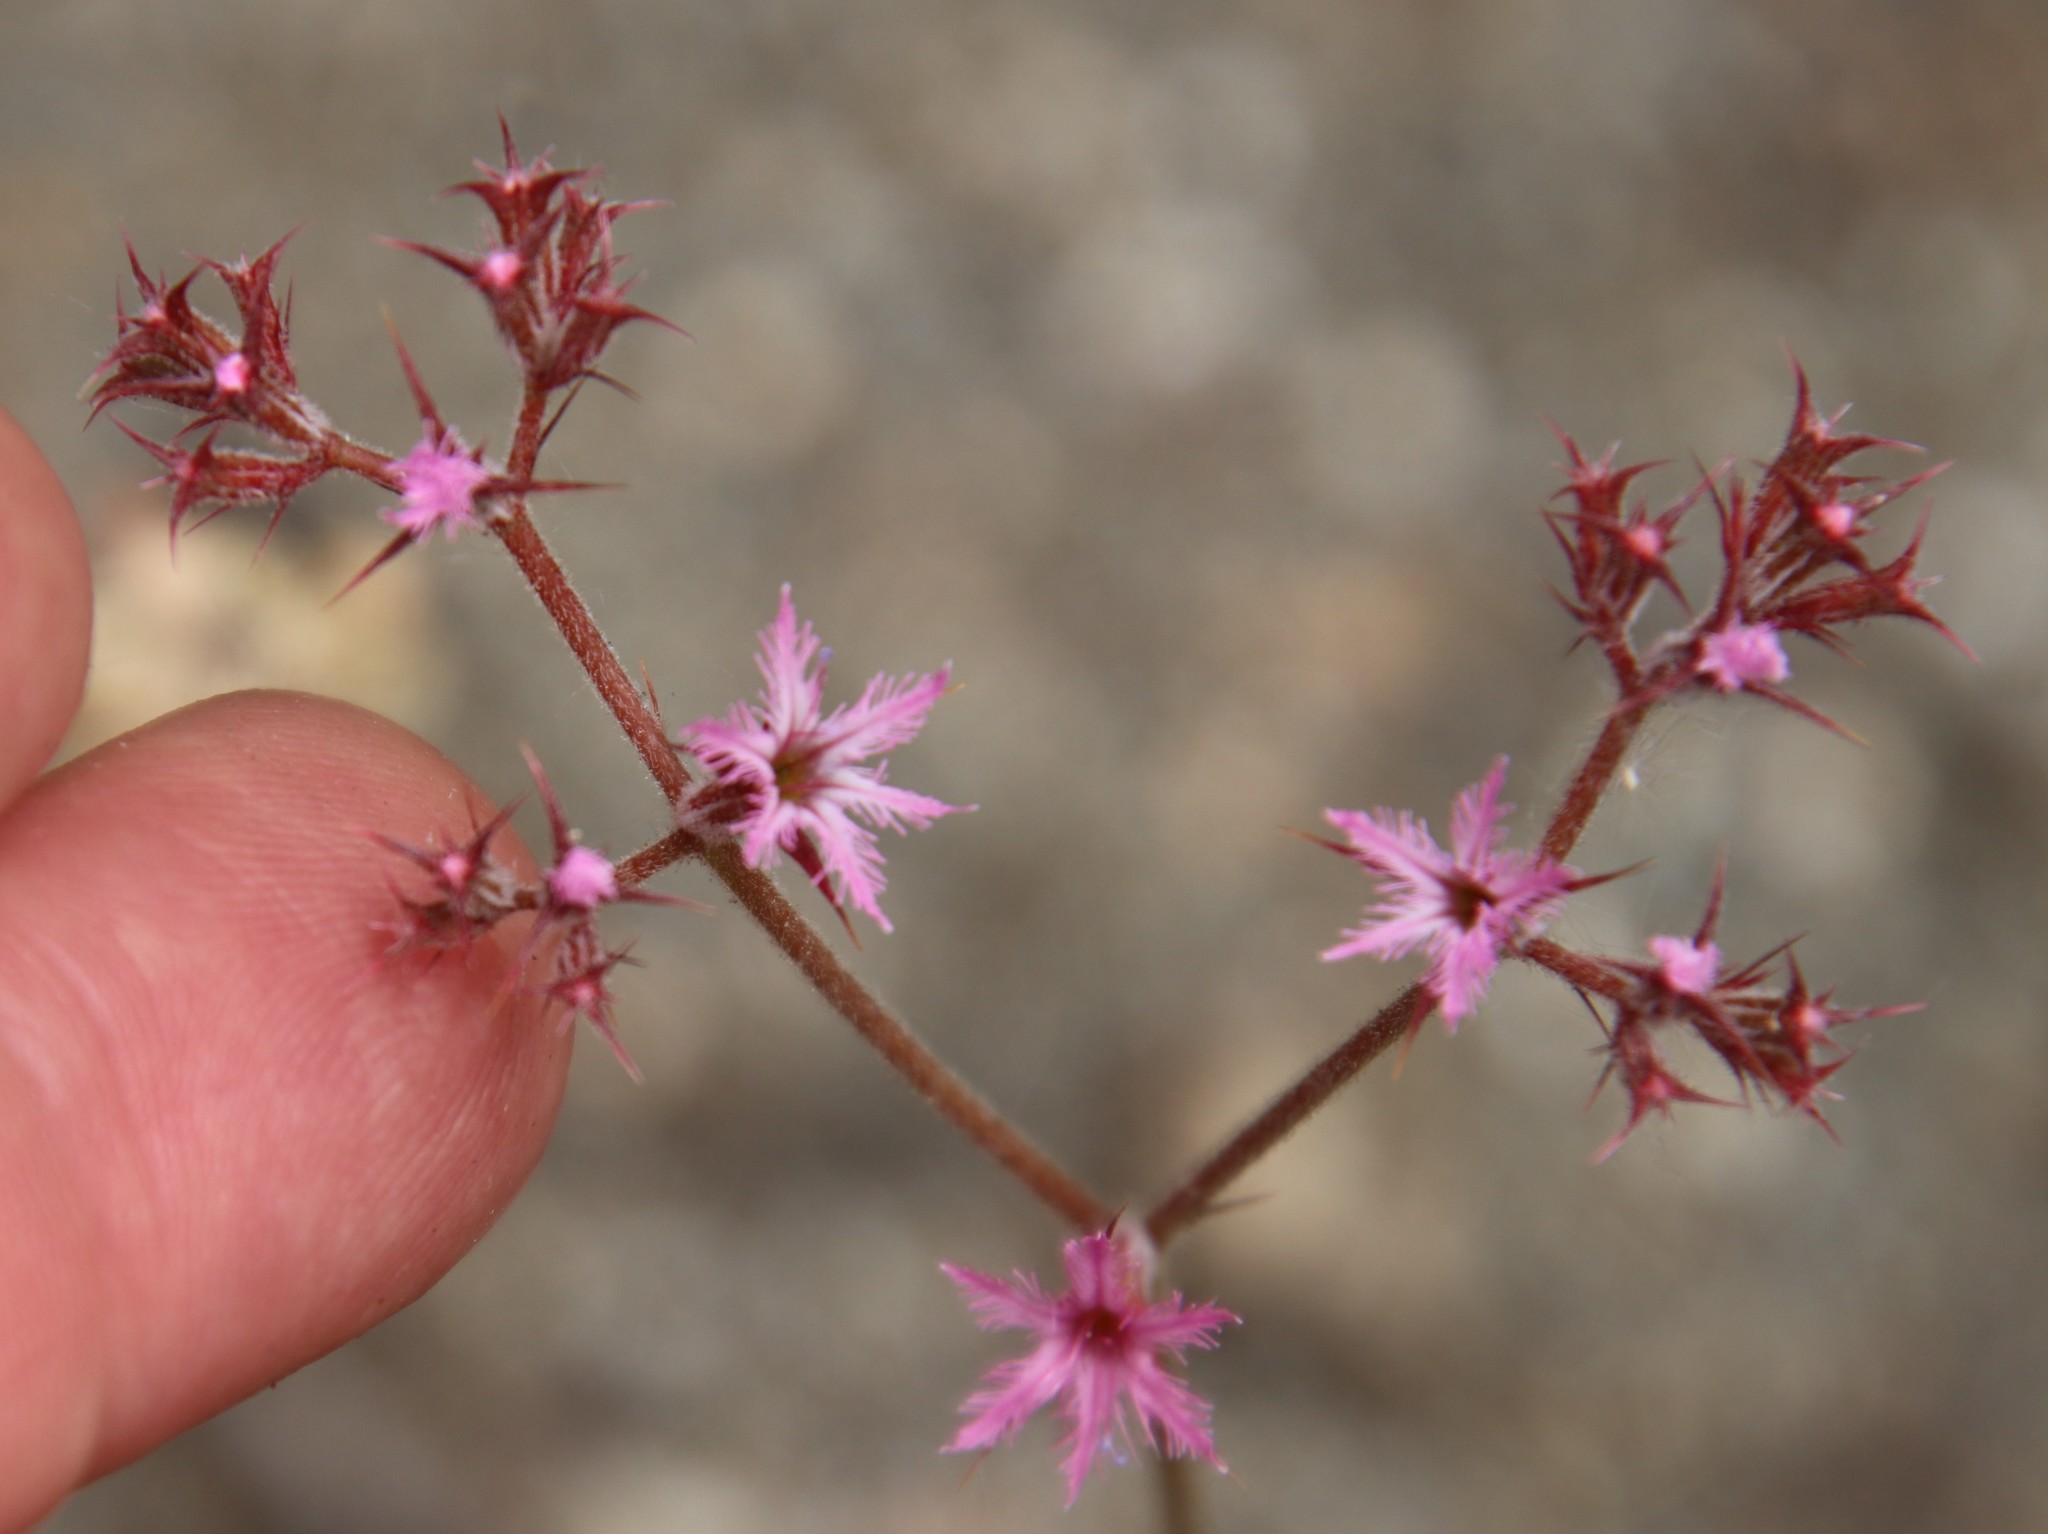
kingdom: Plantae
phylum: Tracheophyta
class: Magnoliopsida
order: Caryophyllales
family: Polygonaceae
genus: Chorizanthe
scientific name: Chorizanthe fimbriata
